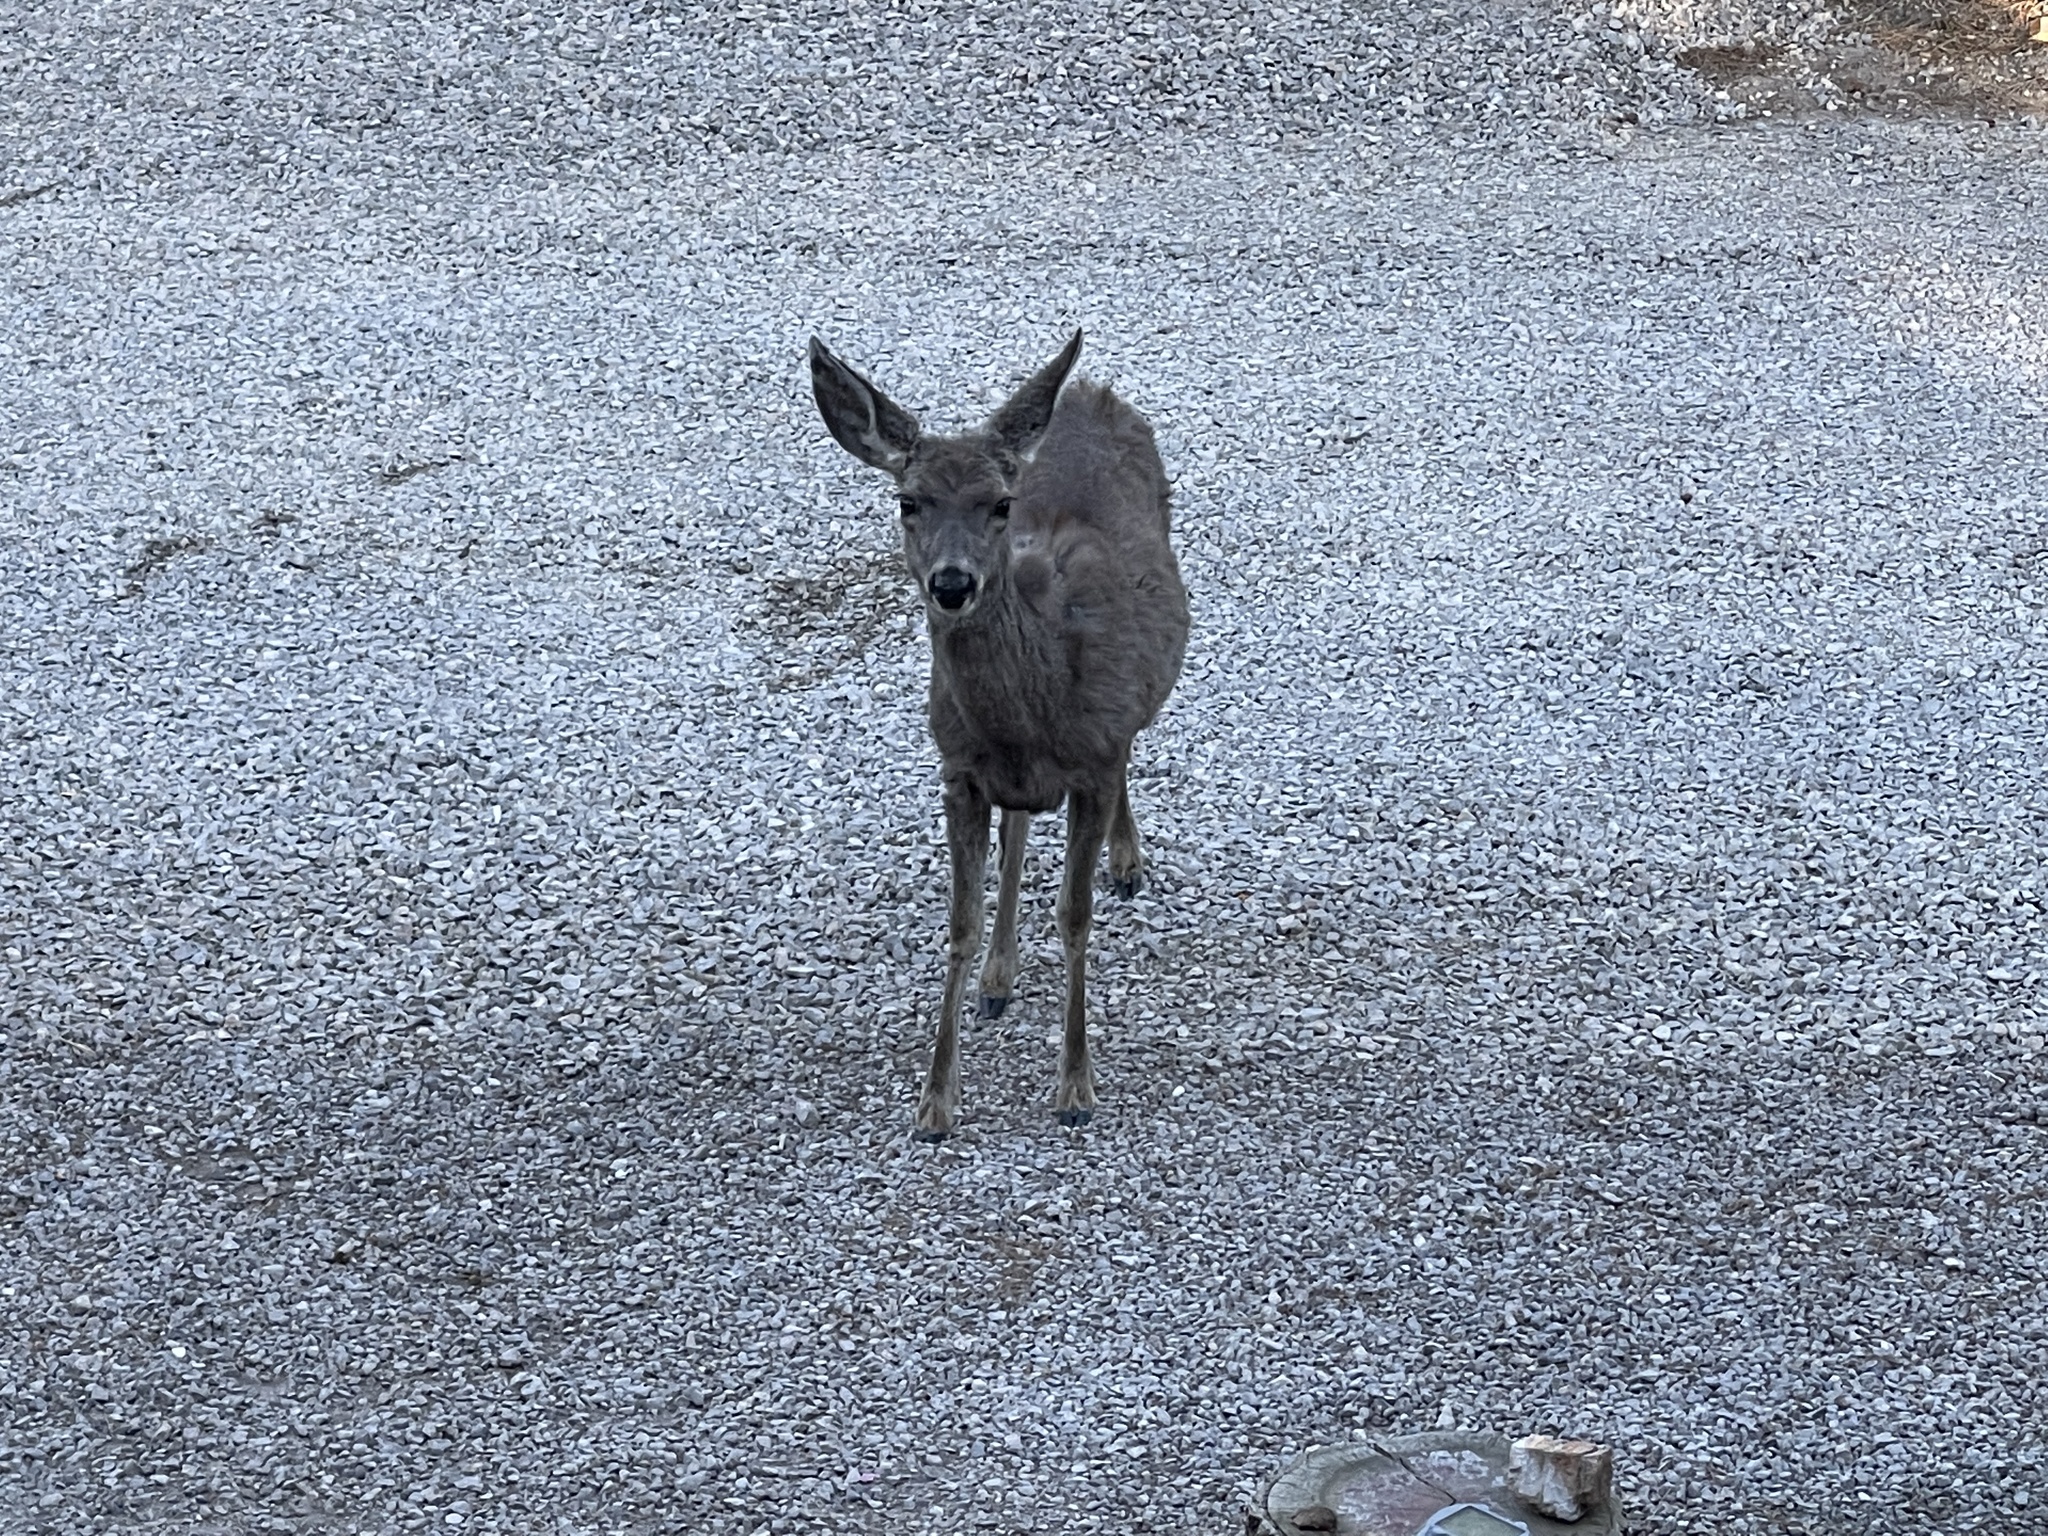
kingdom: Animalia
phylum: Chordata
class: Mammalia
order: Artiodactyla
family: Cervidae
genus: Odocoileus
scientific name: Odocoileus hemionus
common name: Mule deer
